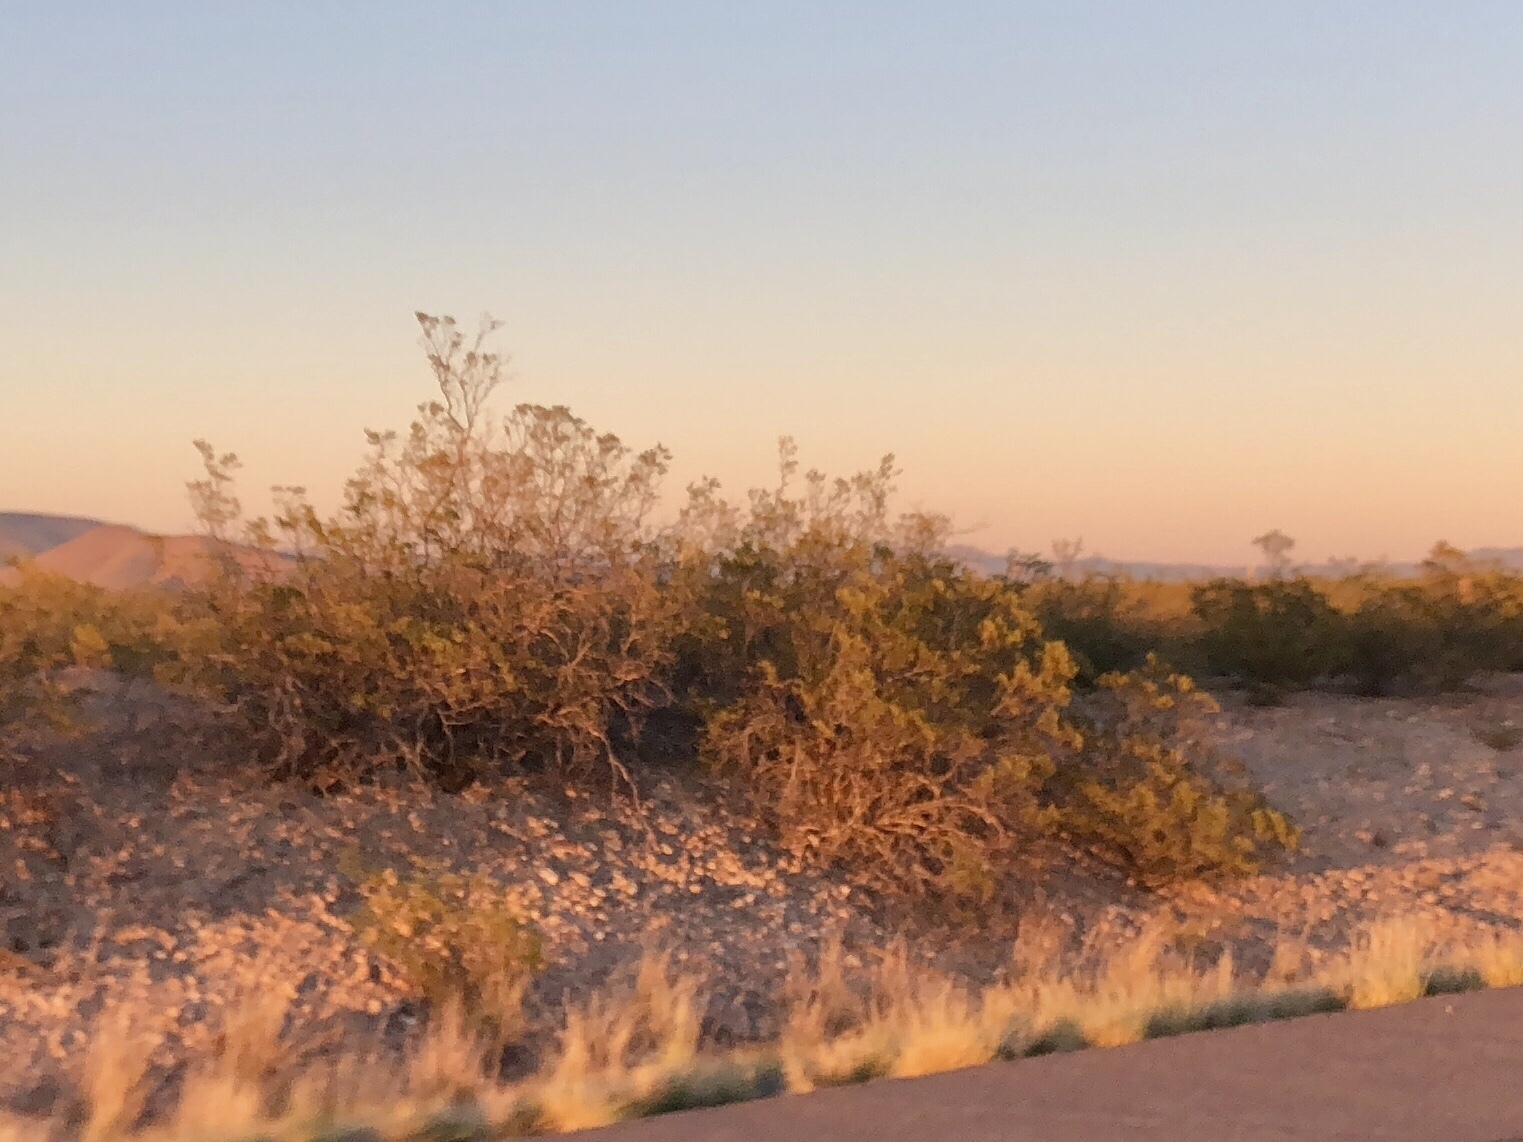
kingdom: Plantae
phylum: Tracheophyta
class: Magnoliopsida
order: Zygophyllales
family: Zygophyllaceae
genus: Larrea
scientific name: Larrea tridentata
